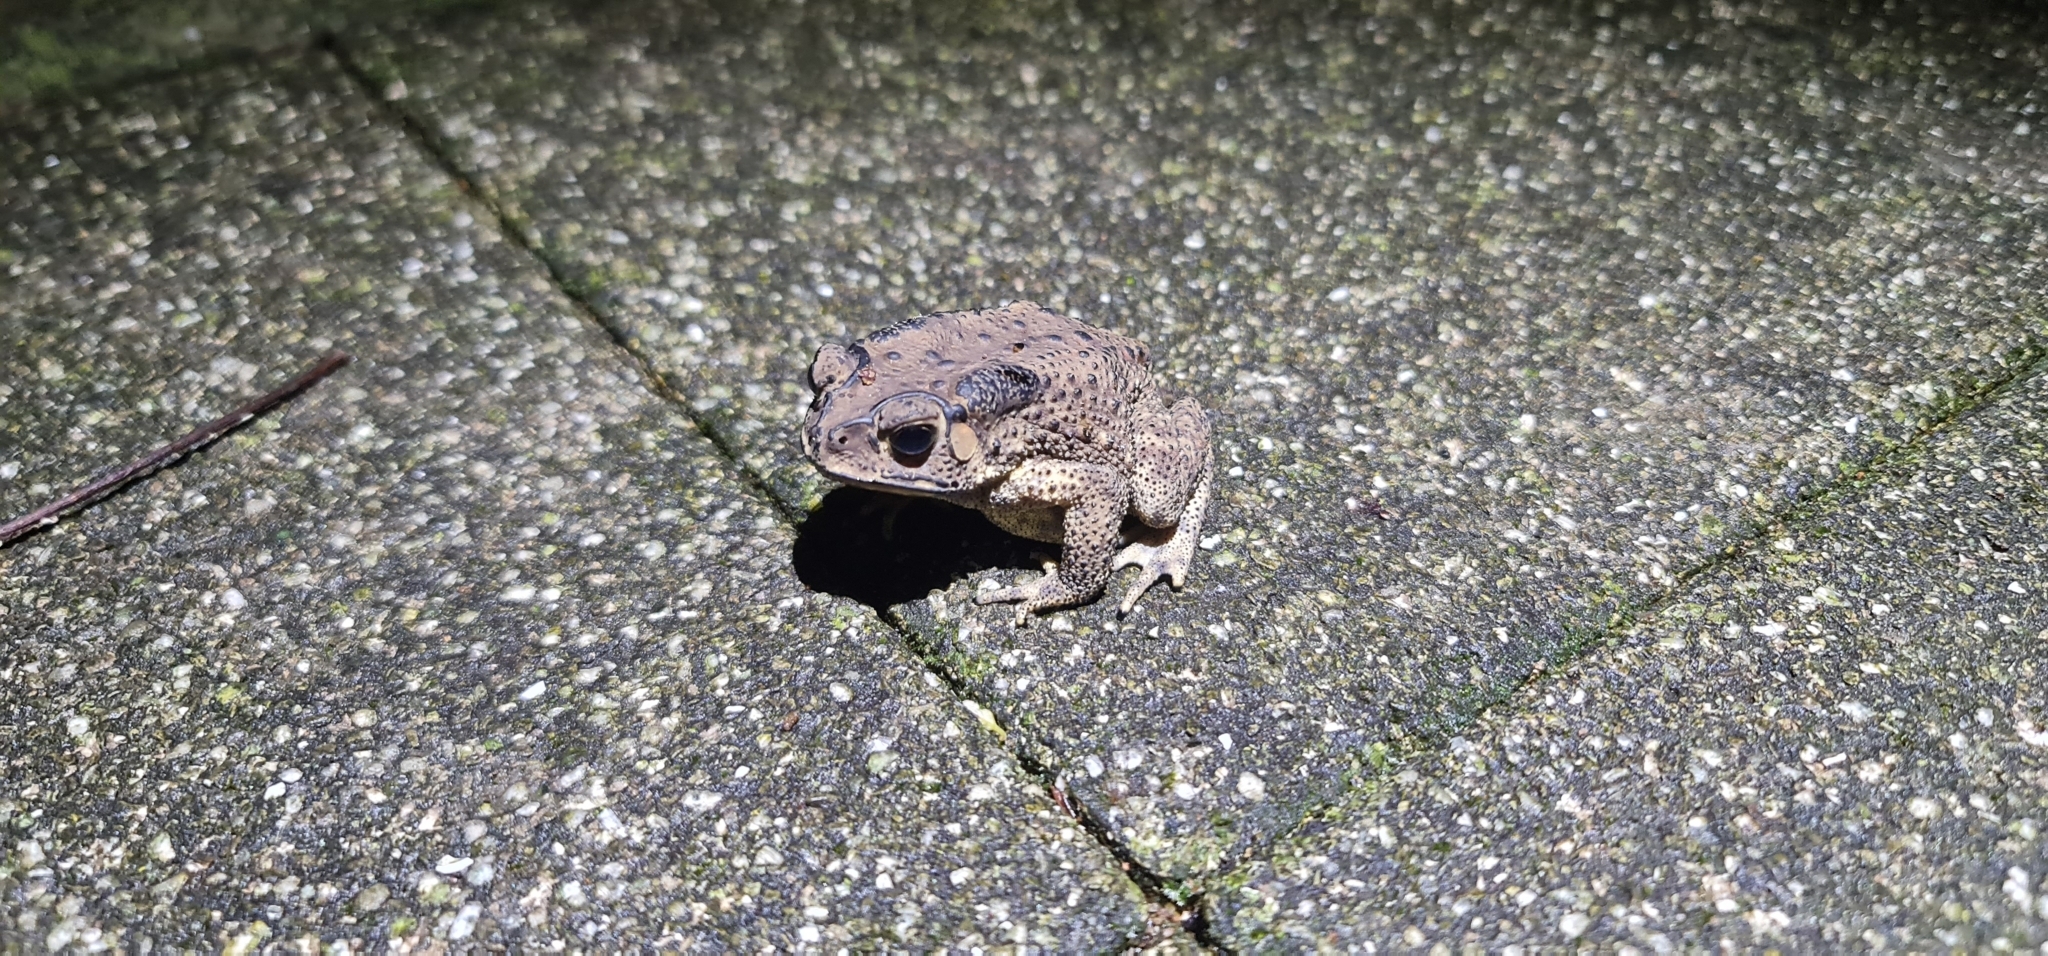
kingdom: Animalia
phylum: Chordata
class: Amphibia
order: Anura
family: Bufonidae
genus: Duttaphrynus
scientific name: Duttaphrynus melanostictus
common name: Common sunda toad
